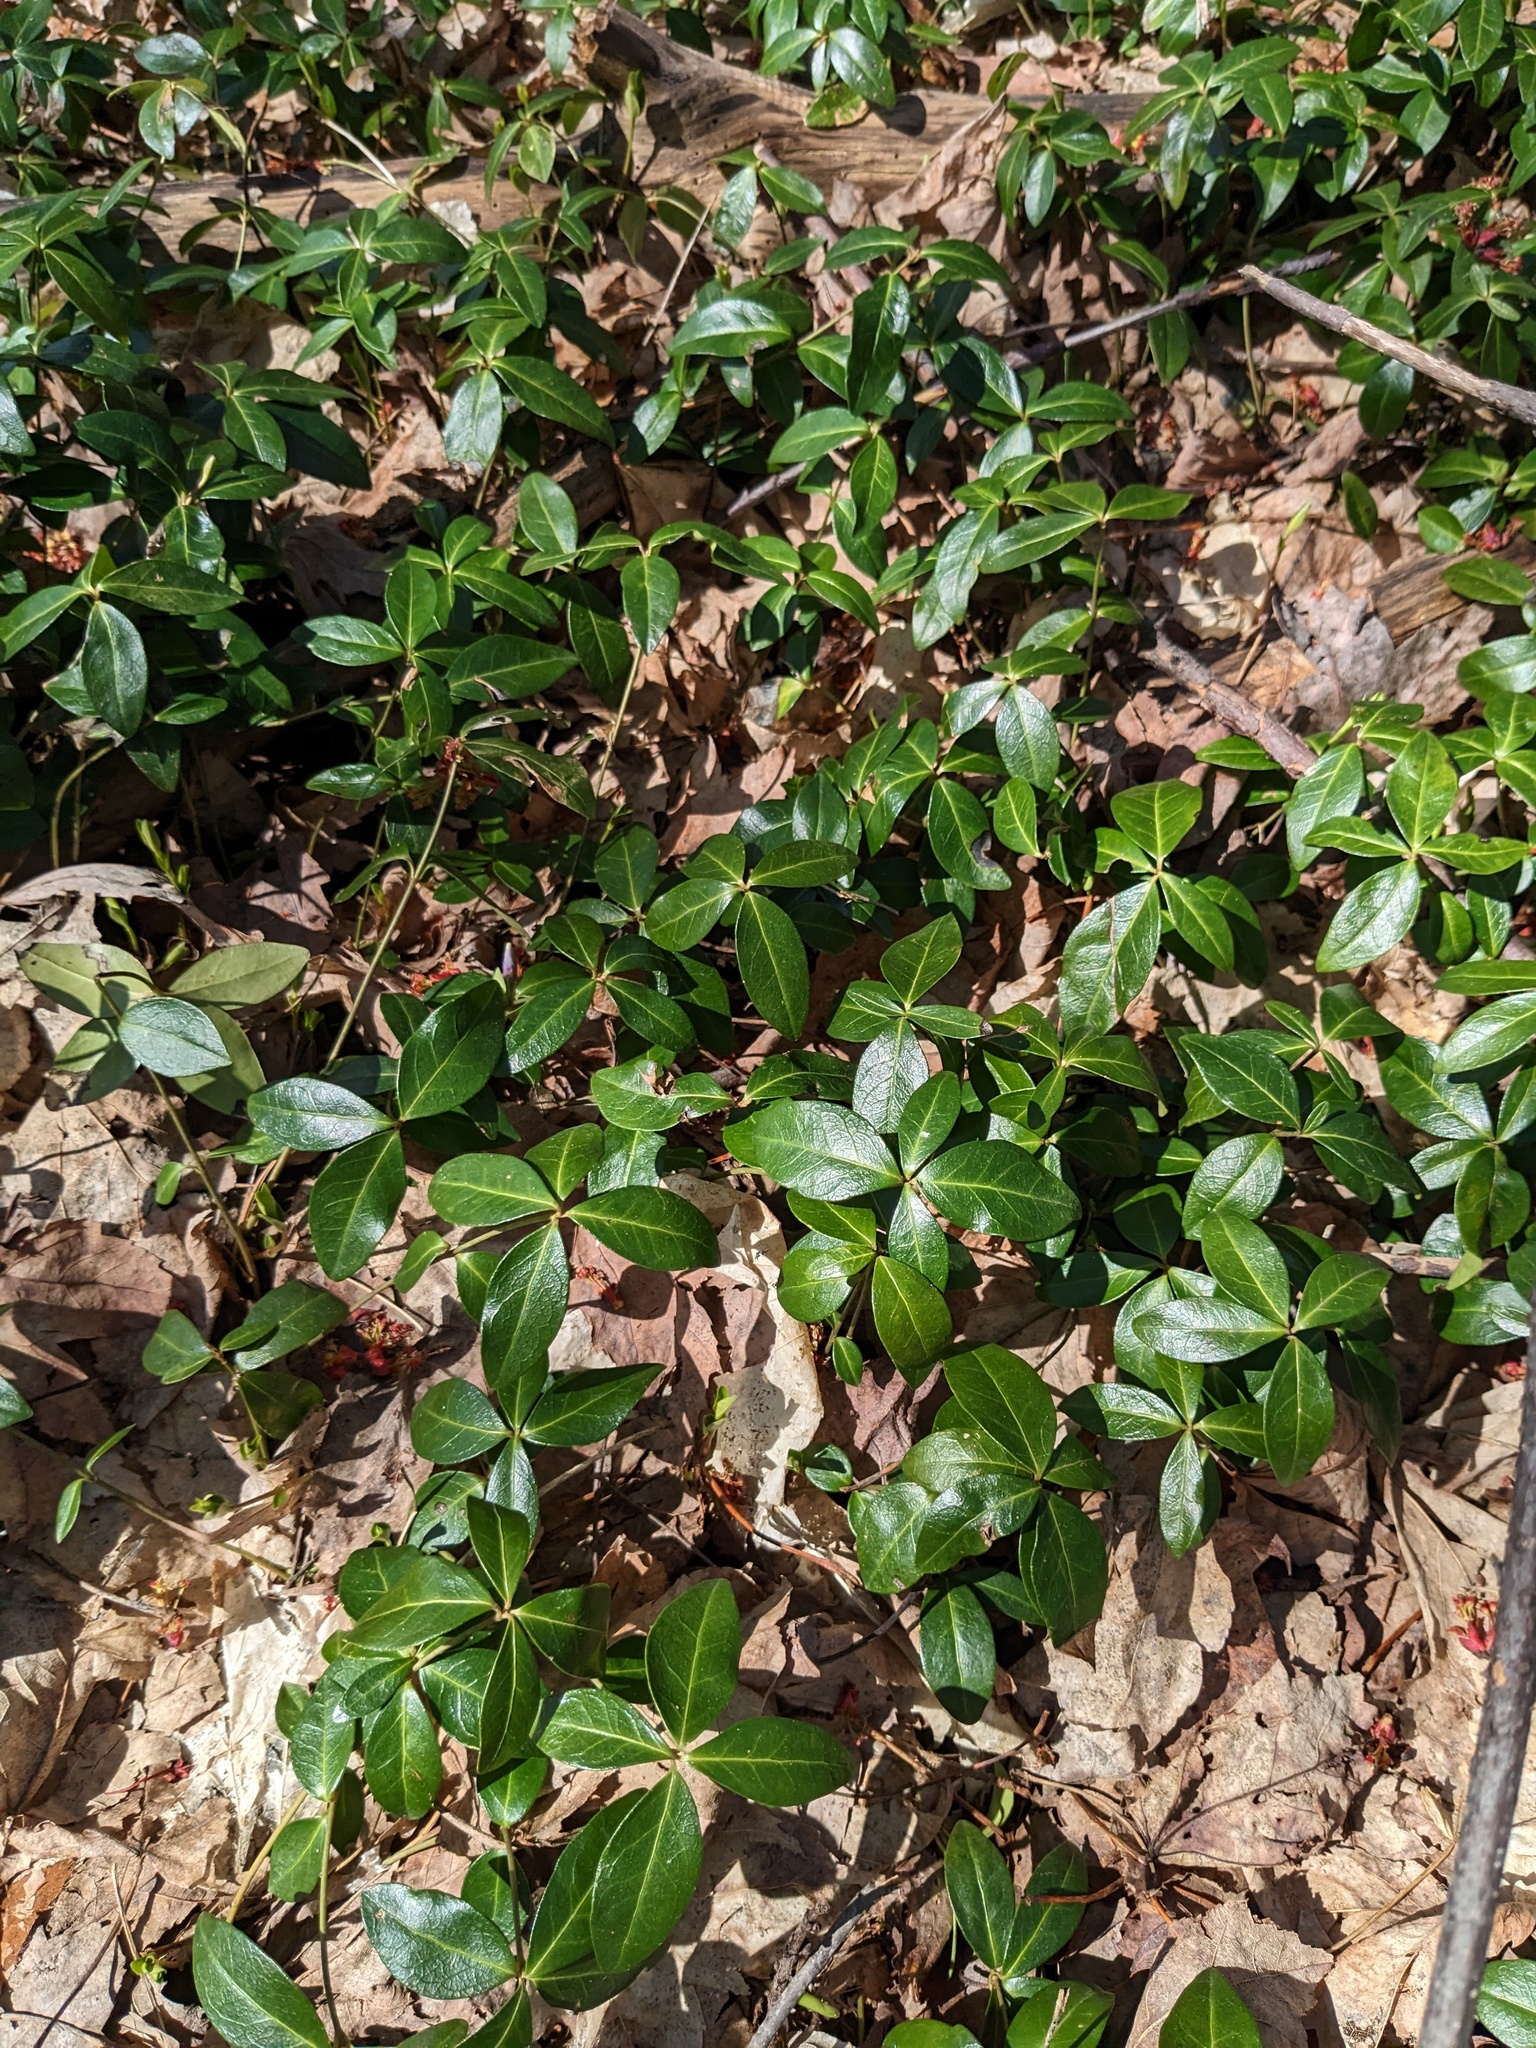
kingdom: Plantae
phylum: Tracheophyta
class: Magnoliopsida
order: Gentianales
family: Apocynaceae
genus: Vinca
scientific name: Vinca minor
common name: Lesser periwinkle
